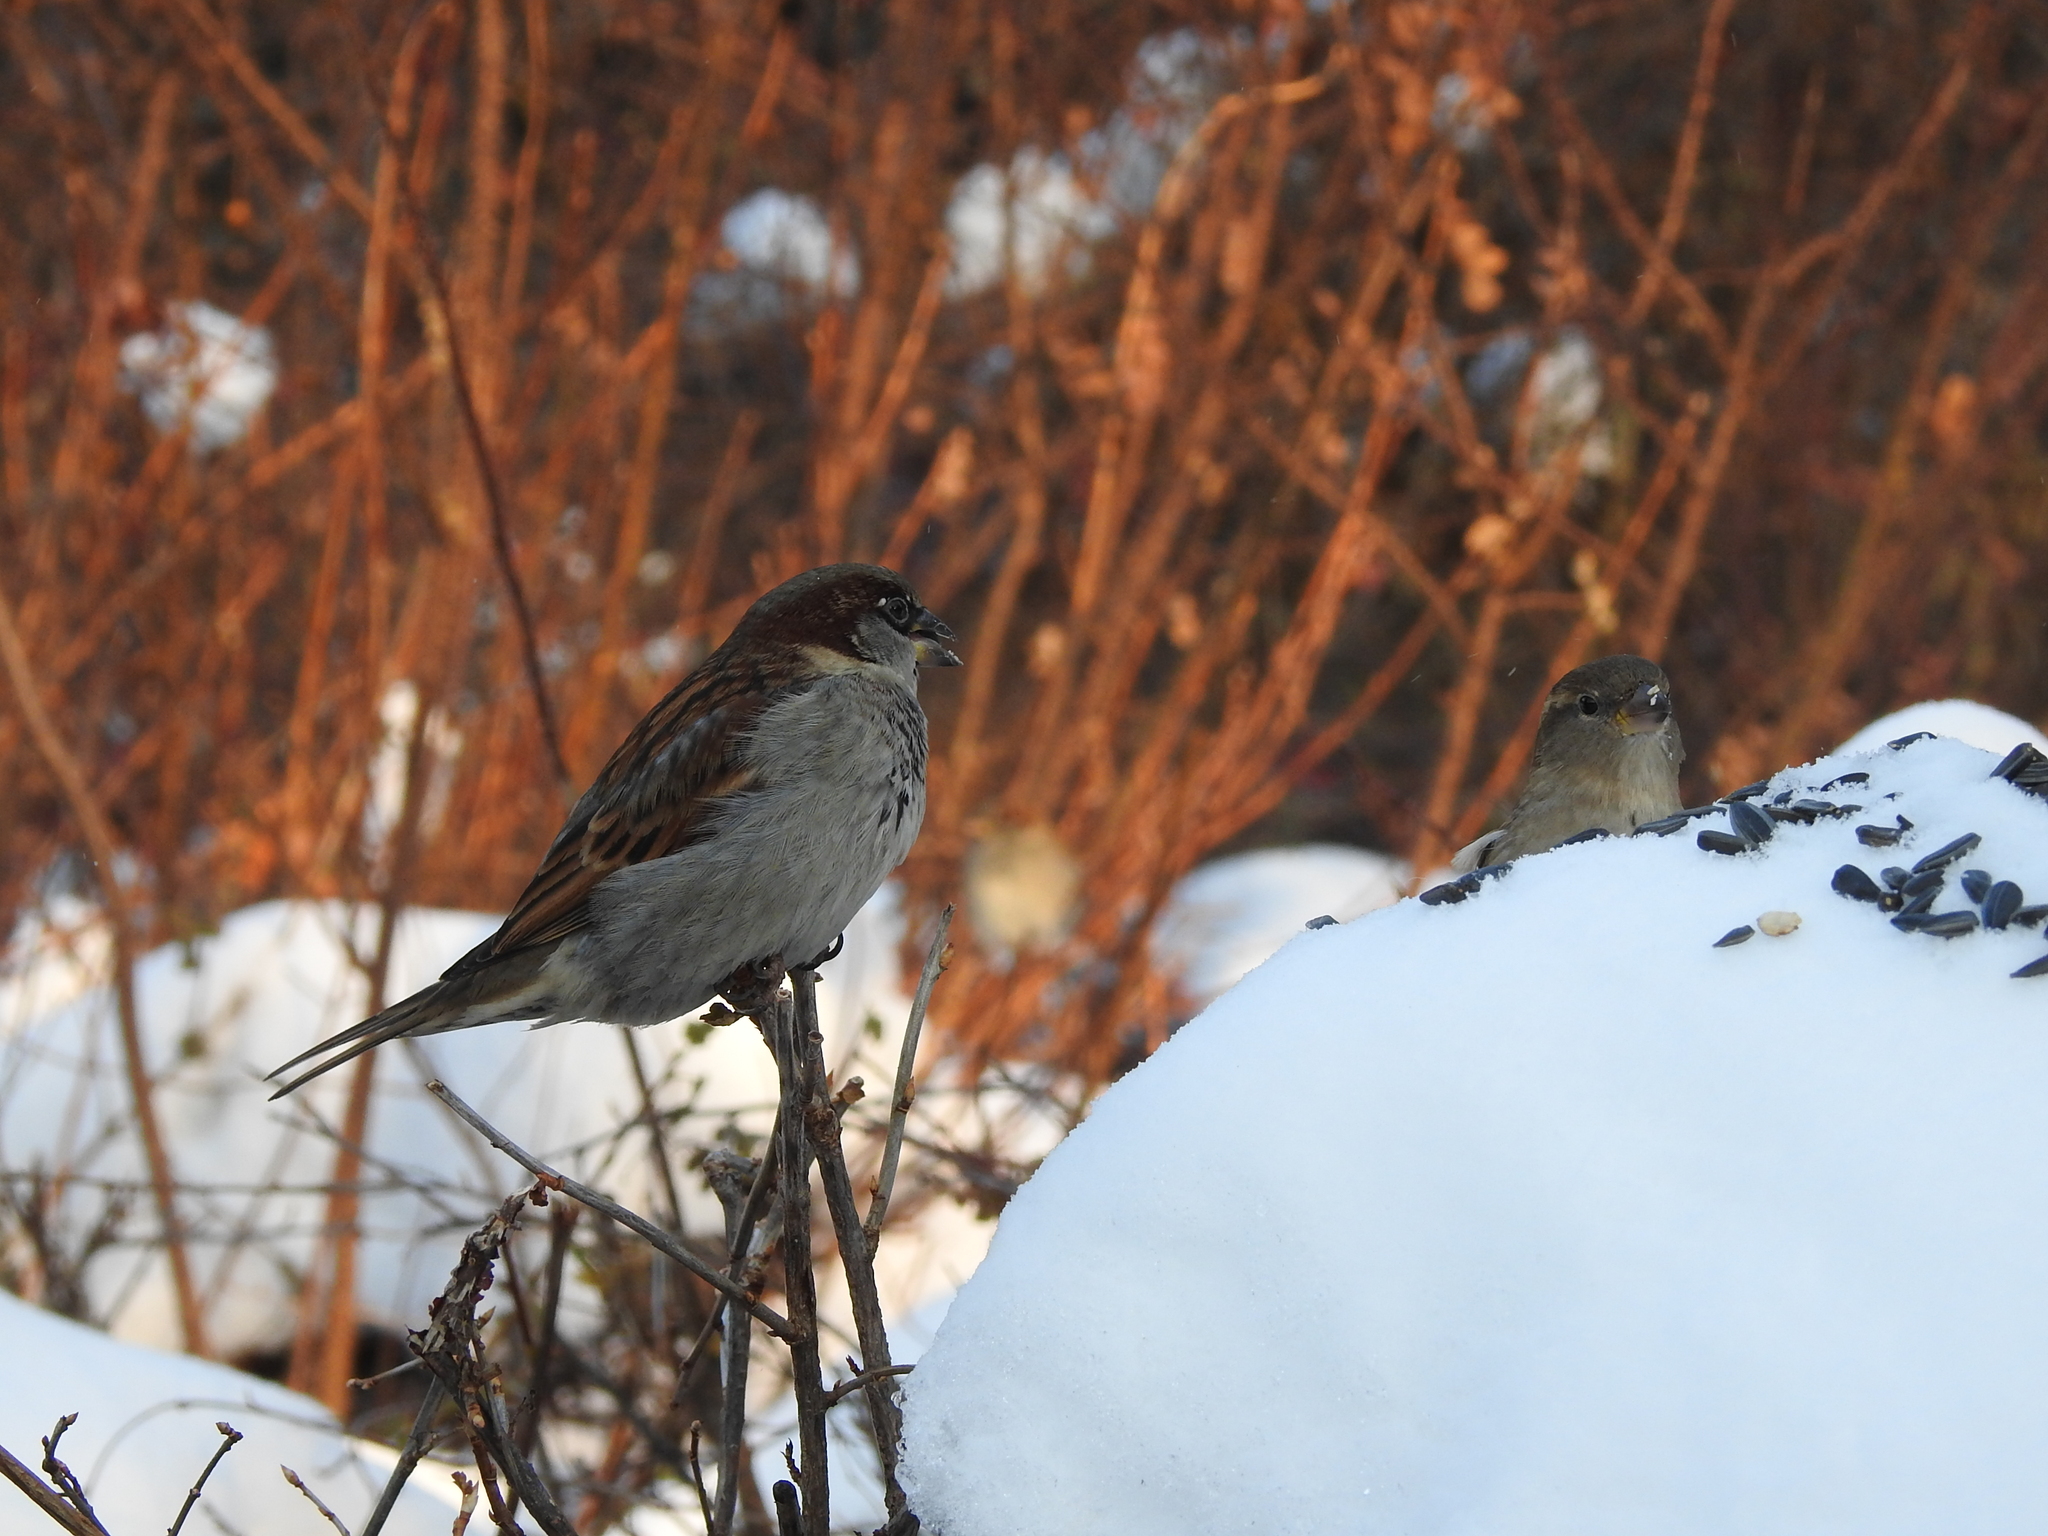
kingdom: Animalia
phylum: Chordata
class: Aves
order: Passeriformes
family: Passeridae
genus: Passer
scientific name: Passer domesticus
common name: House sparrow
